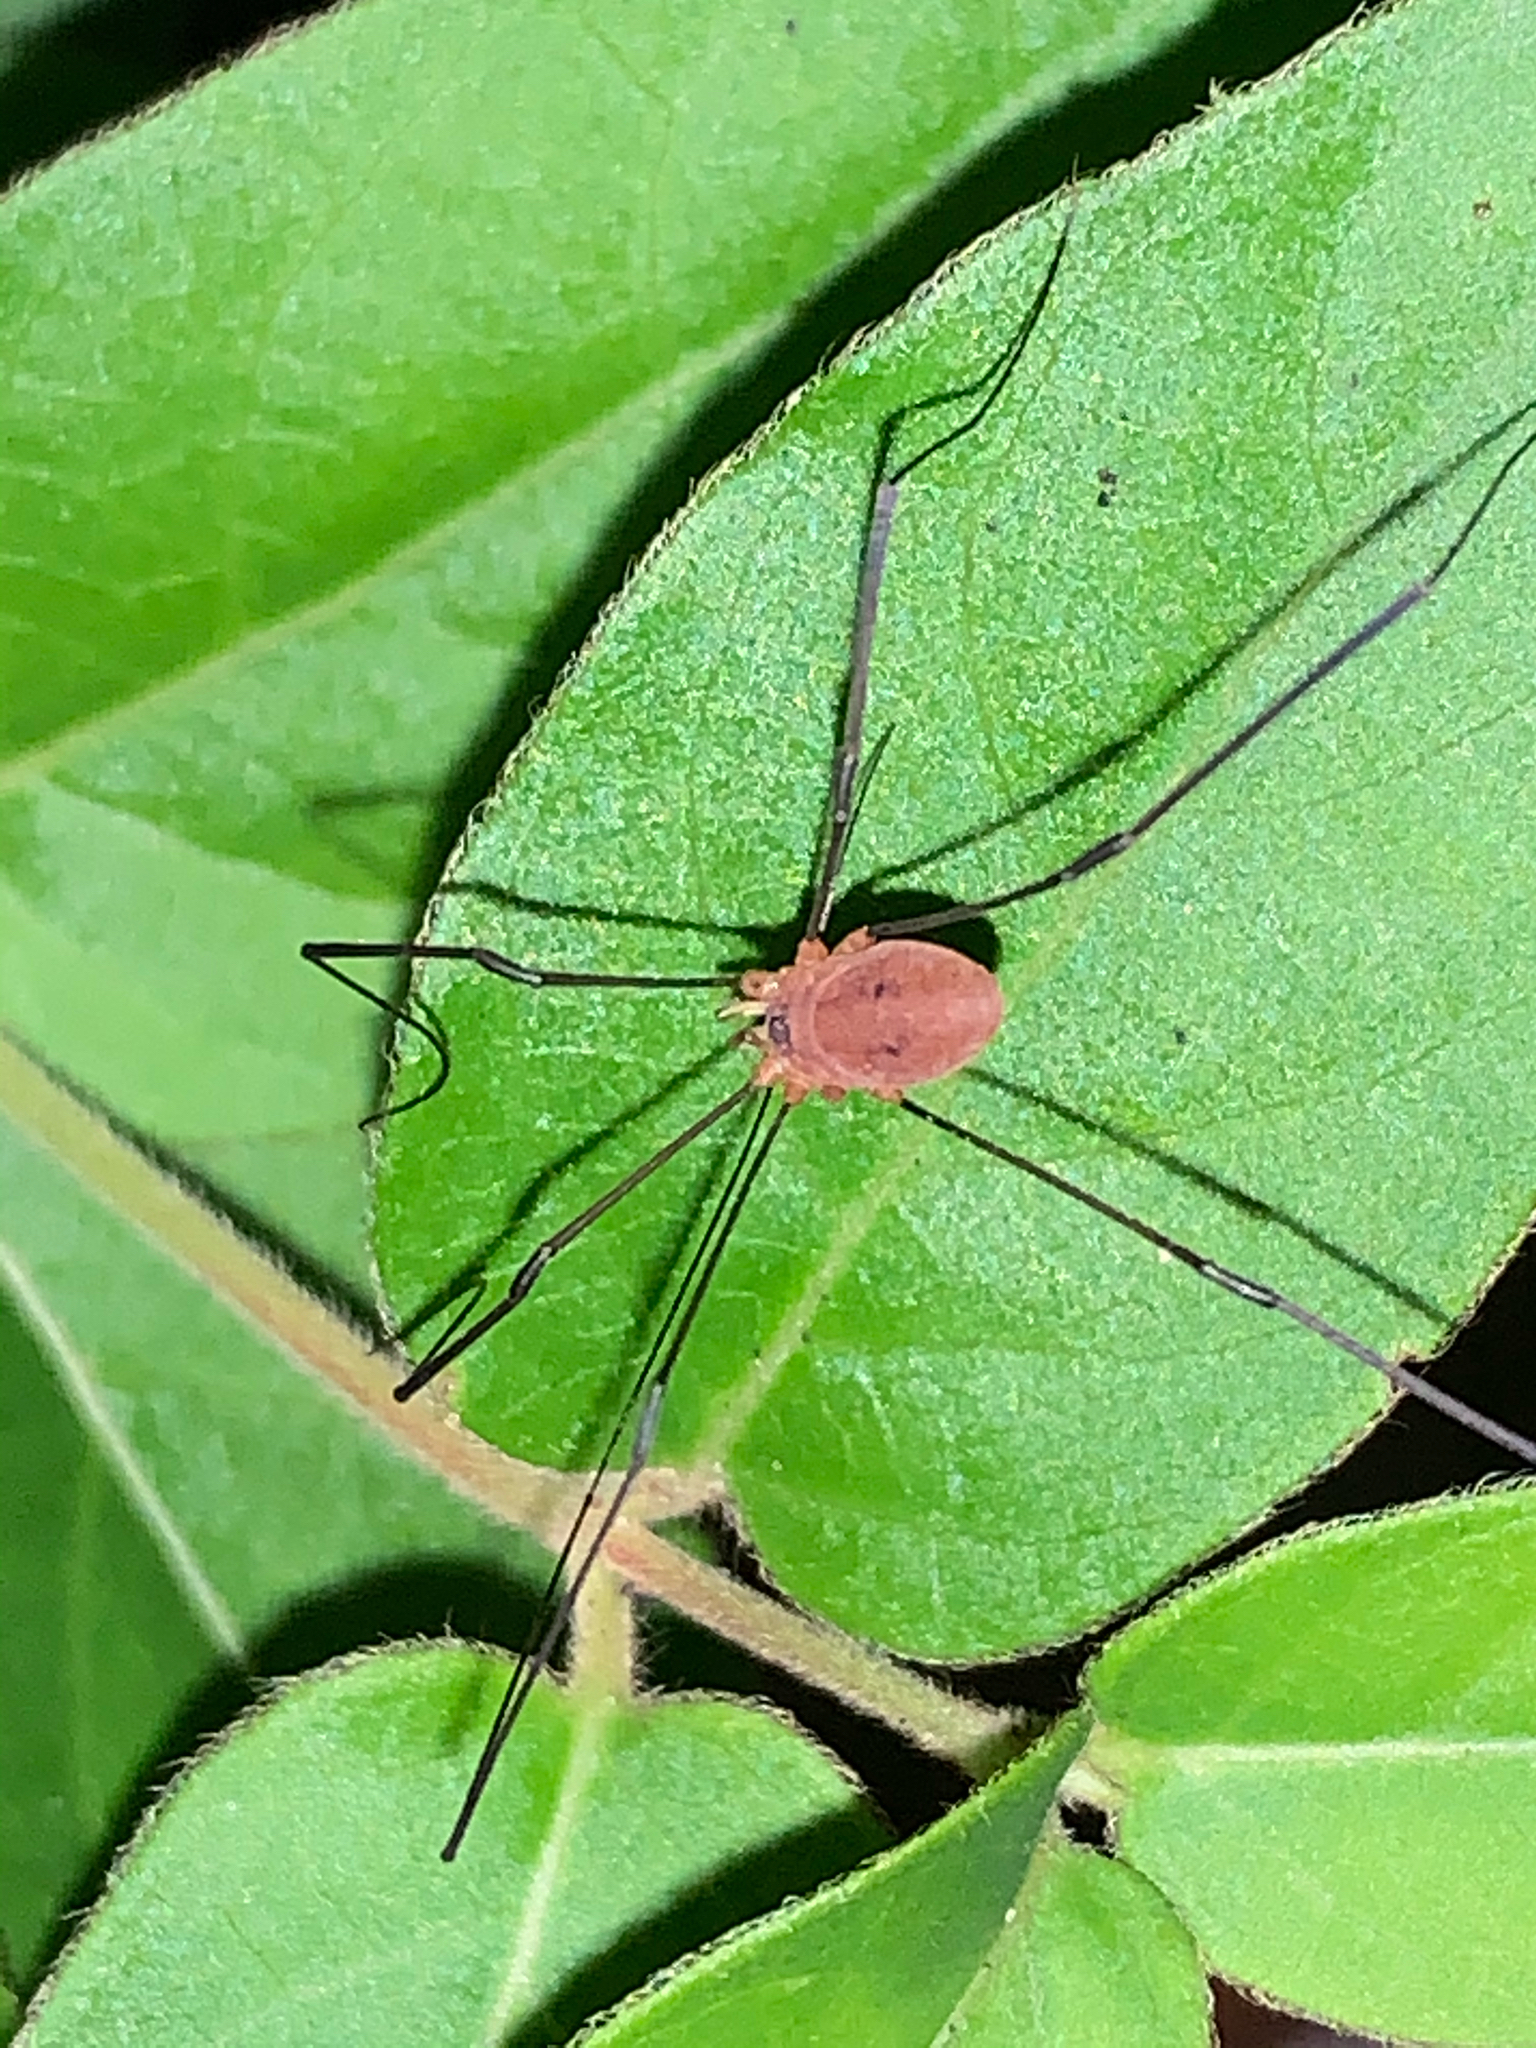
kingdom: Animalia
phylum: Arthropoda
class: Arachnida
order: Opiliones
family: Sclerosomatidae
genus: Leiobunum
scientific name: Leiobunum bracchiolum
